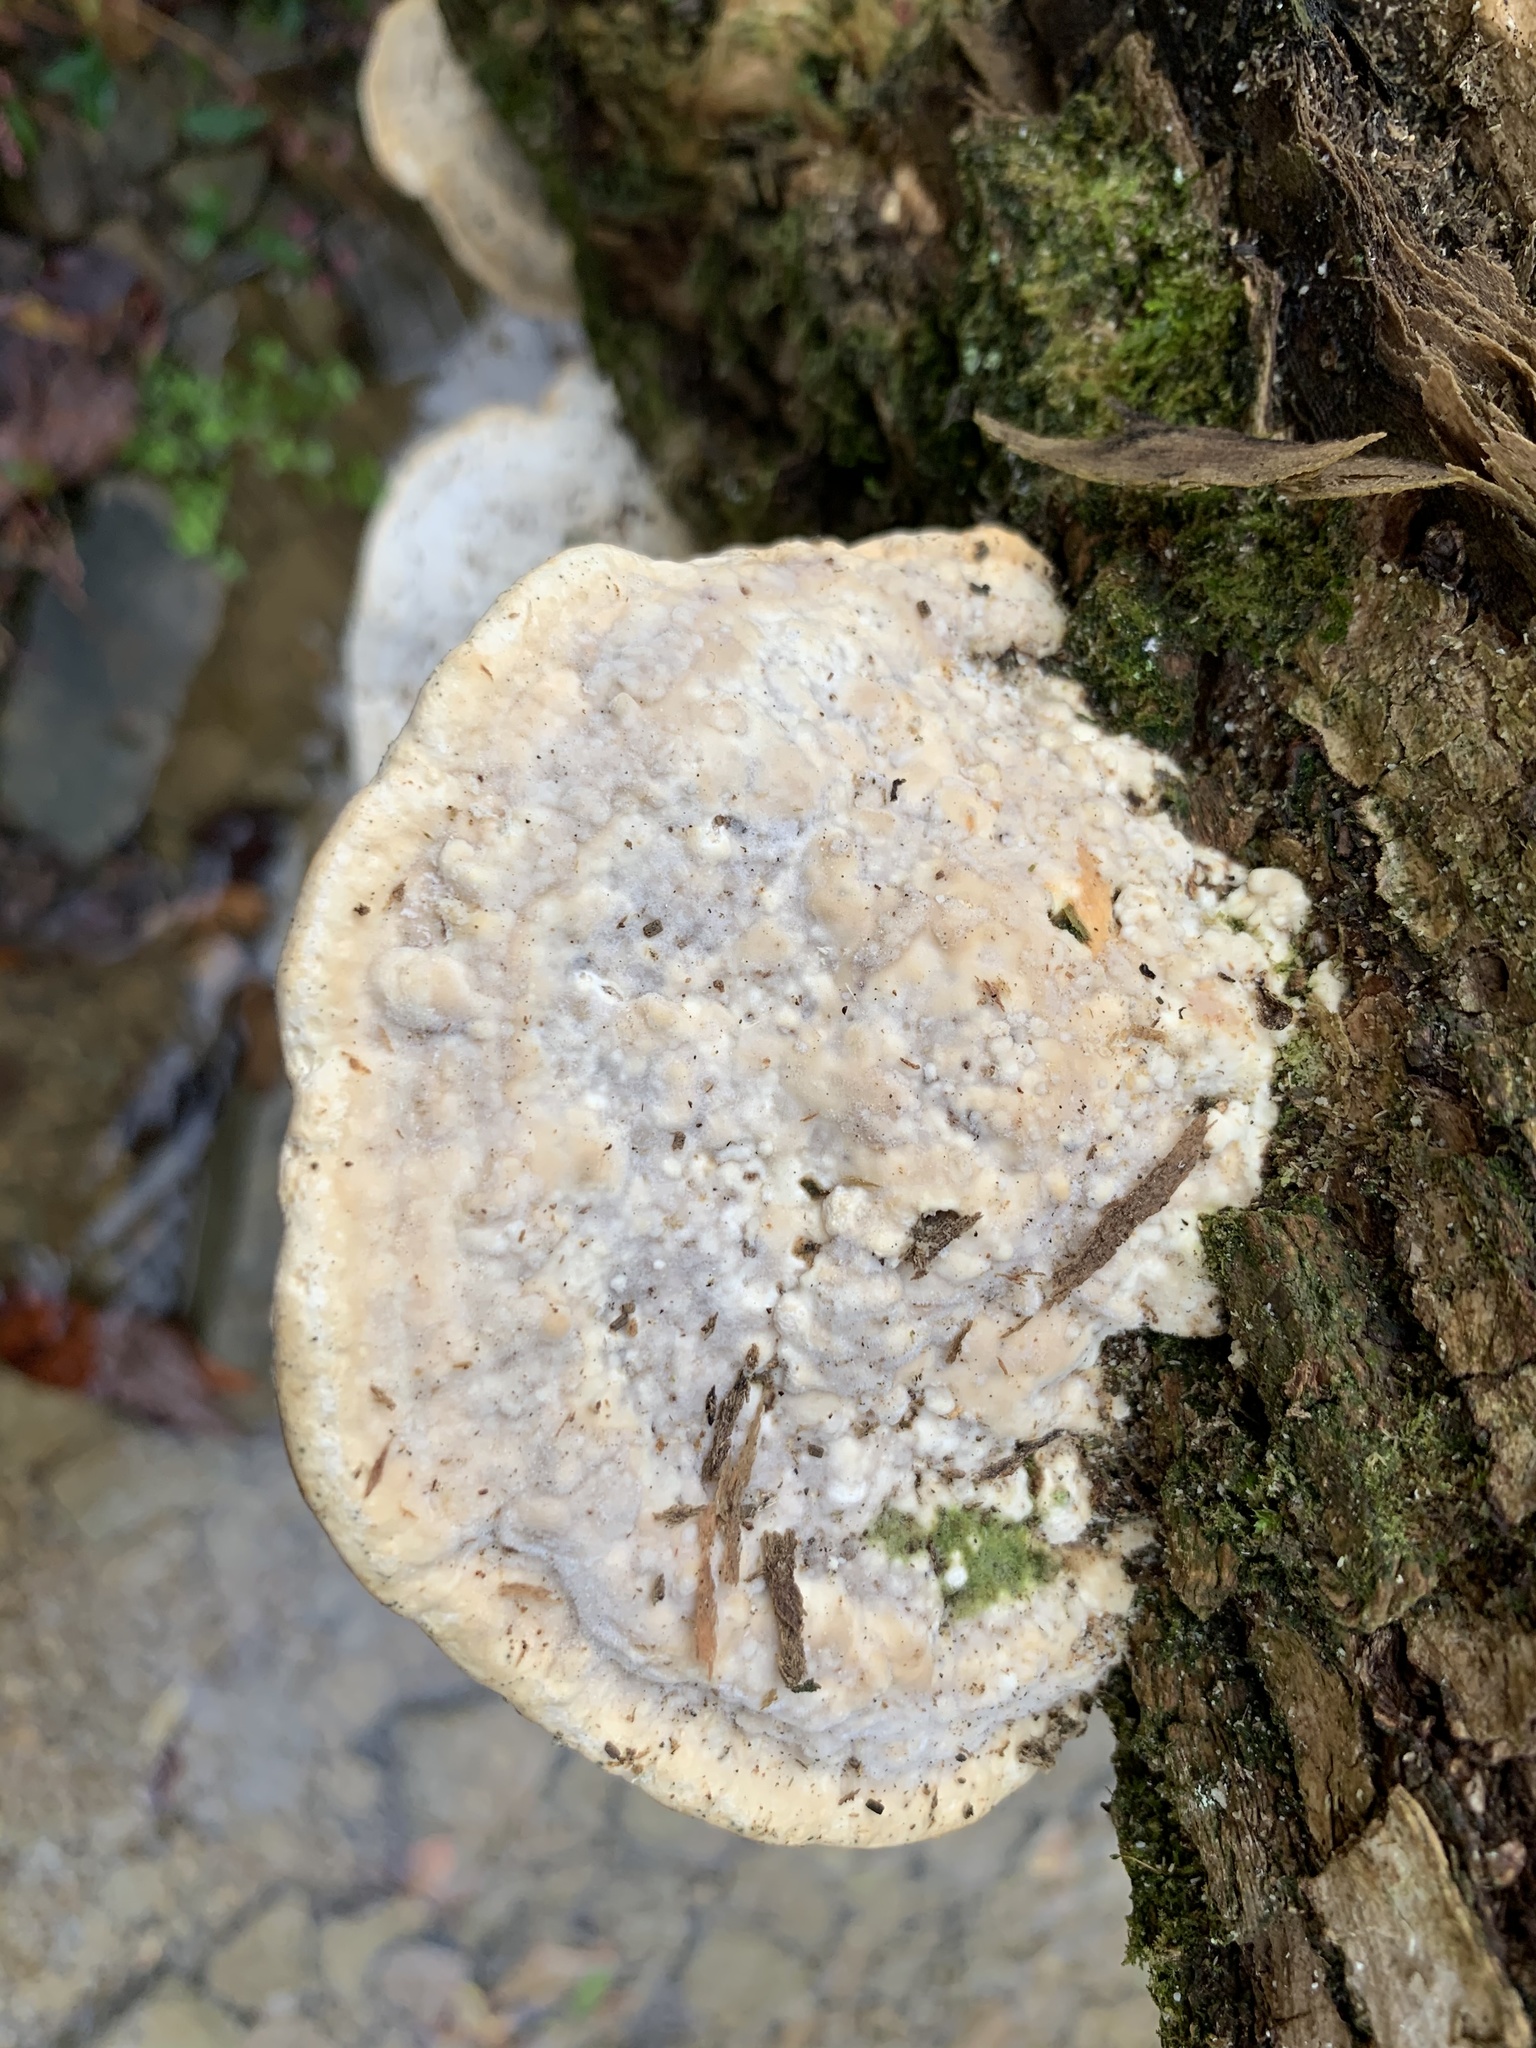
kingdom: Fungi
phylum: Basidiomycota
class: Agaricomycetes
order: Polyporales
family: Polyporaceae
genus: Trametes
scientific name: Trametes gibbosa
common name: Lumpy bracket
